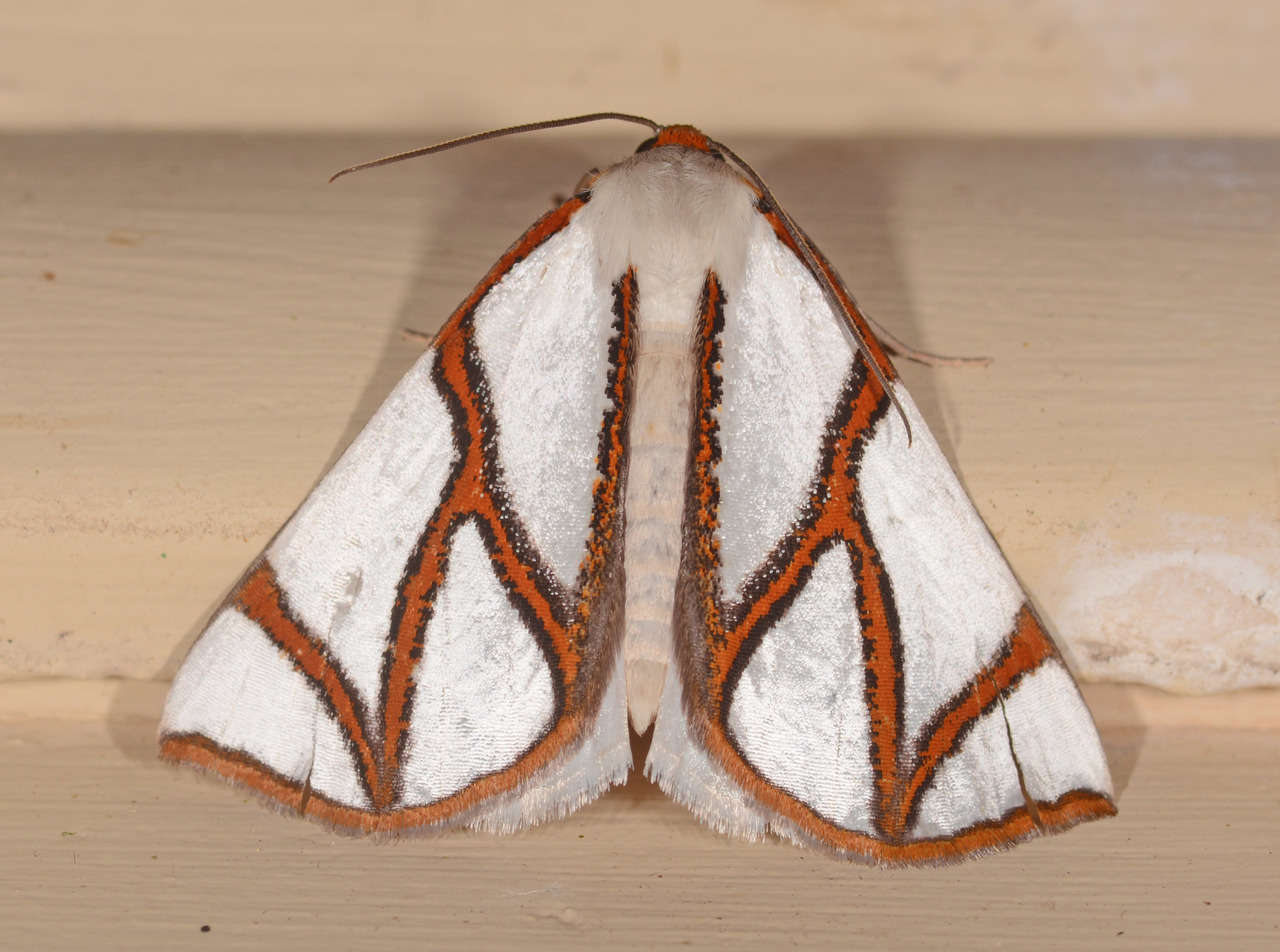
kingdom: Animalia
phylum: Arthropoda
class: Insecta
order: Lepidoptera
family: Geometridae
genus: Thalaina
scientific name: Thalaina clara
